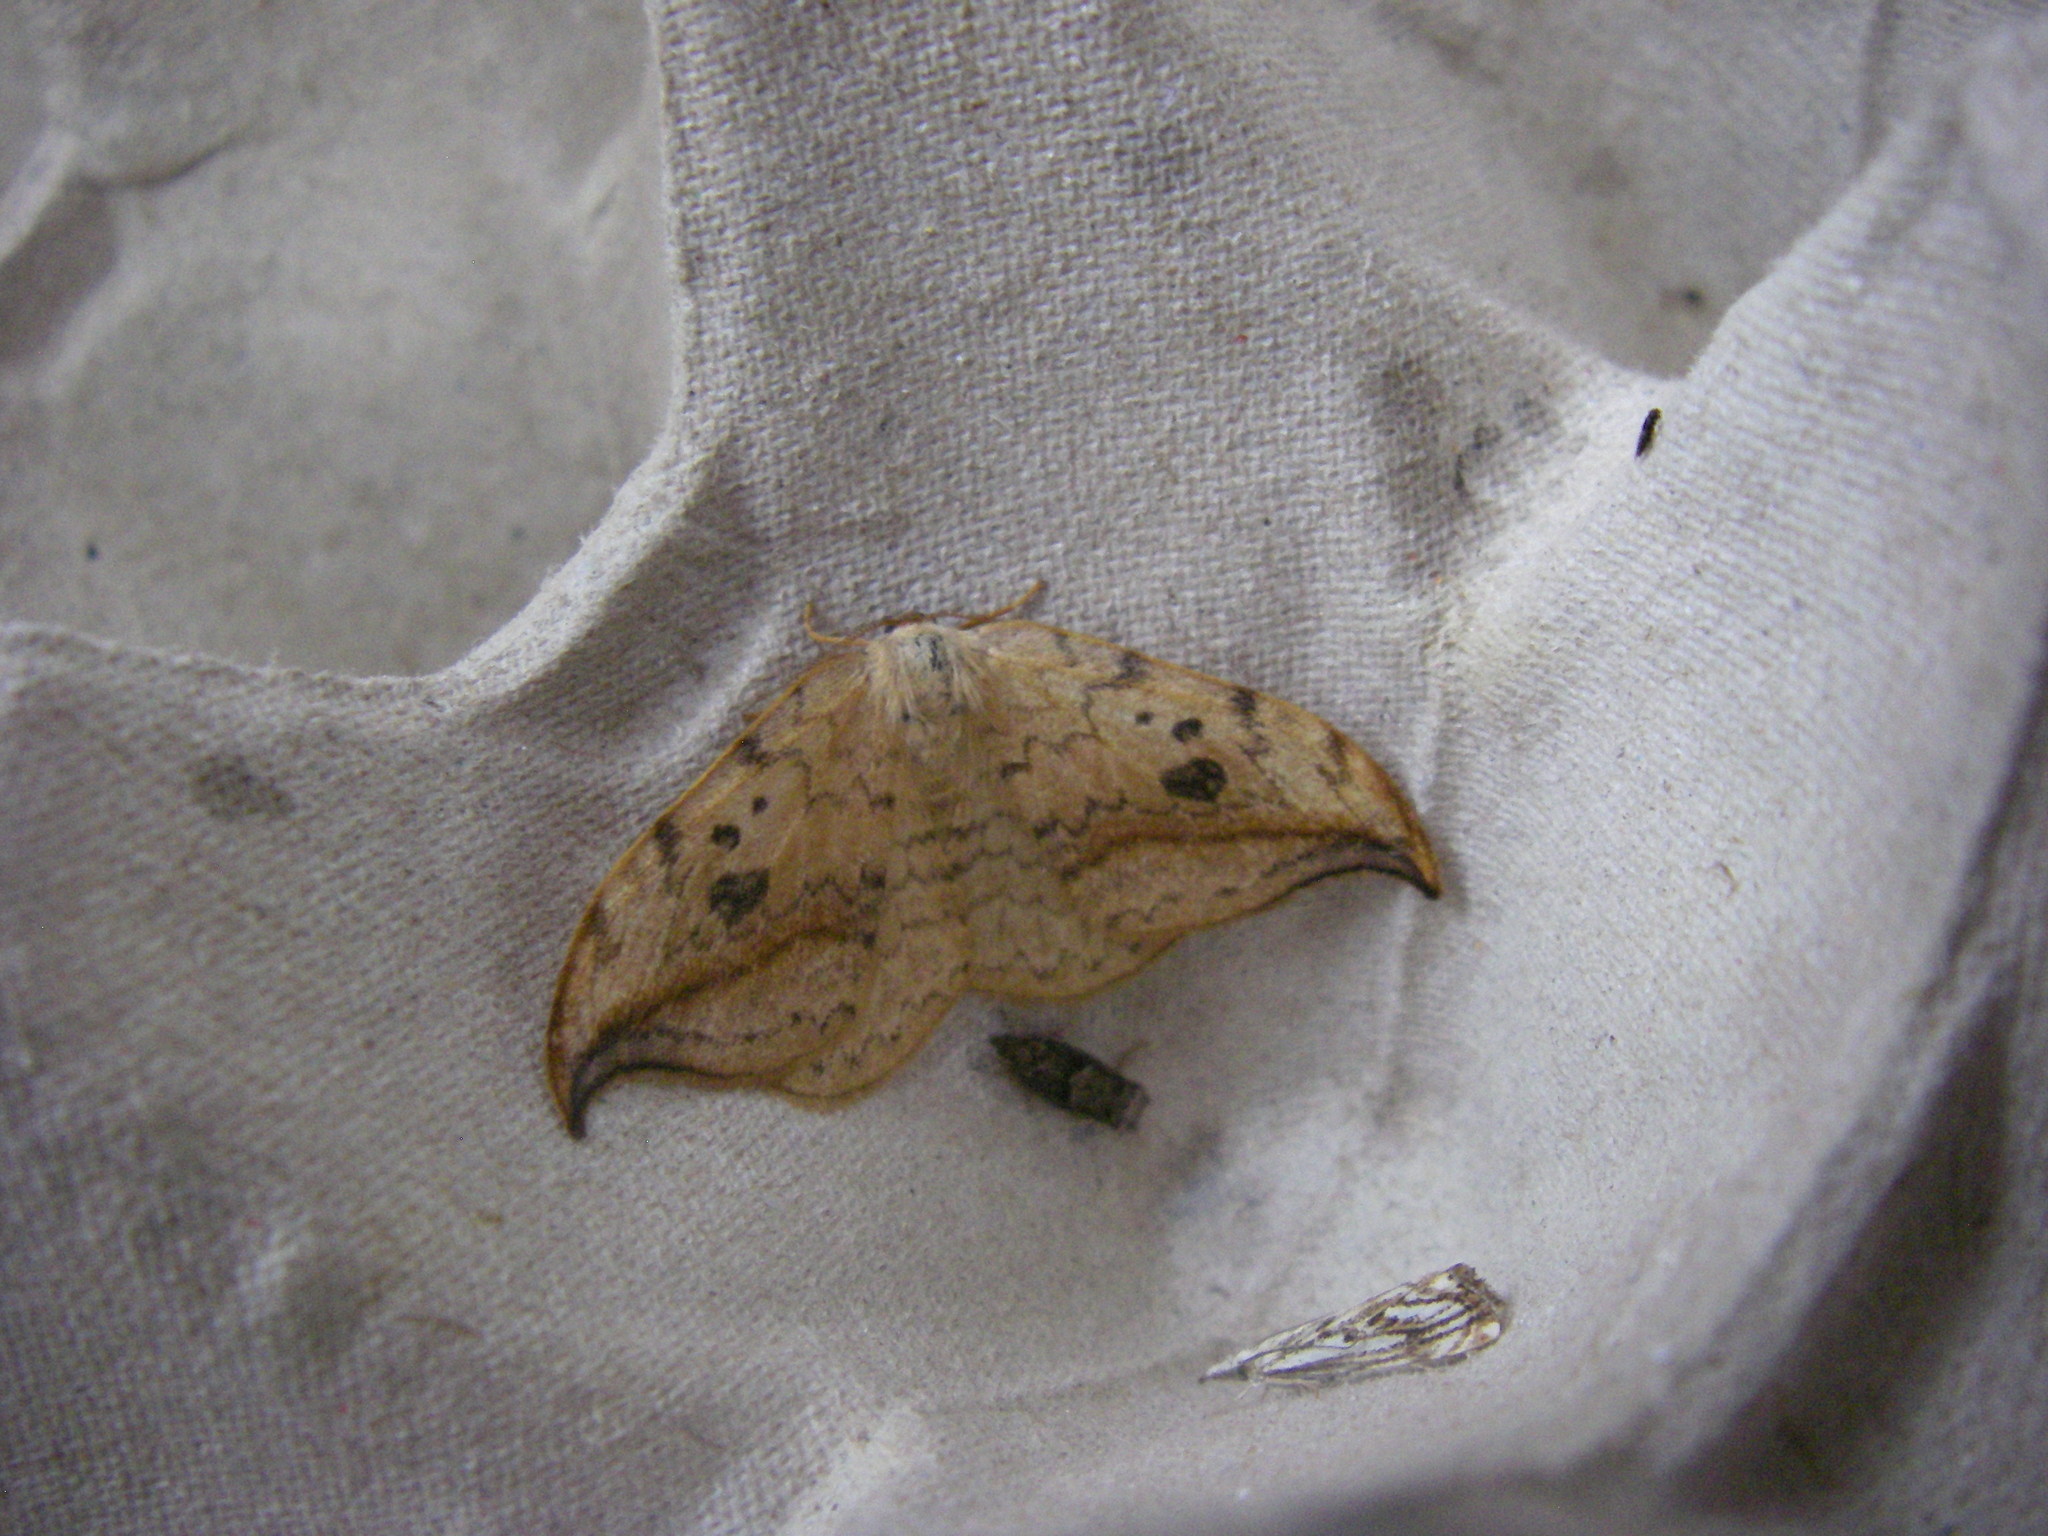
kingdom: Animalia
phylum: Arthropoda
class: Insecta
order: Lepidoptera
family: Drepanidae
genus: Drepana
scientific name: Drepana falcataria
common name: Pebble hook-tip
